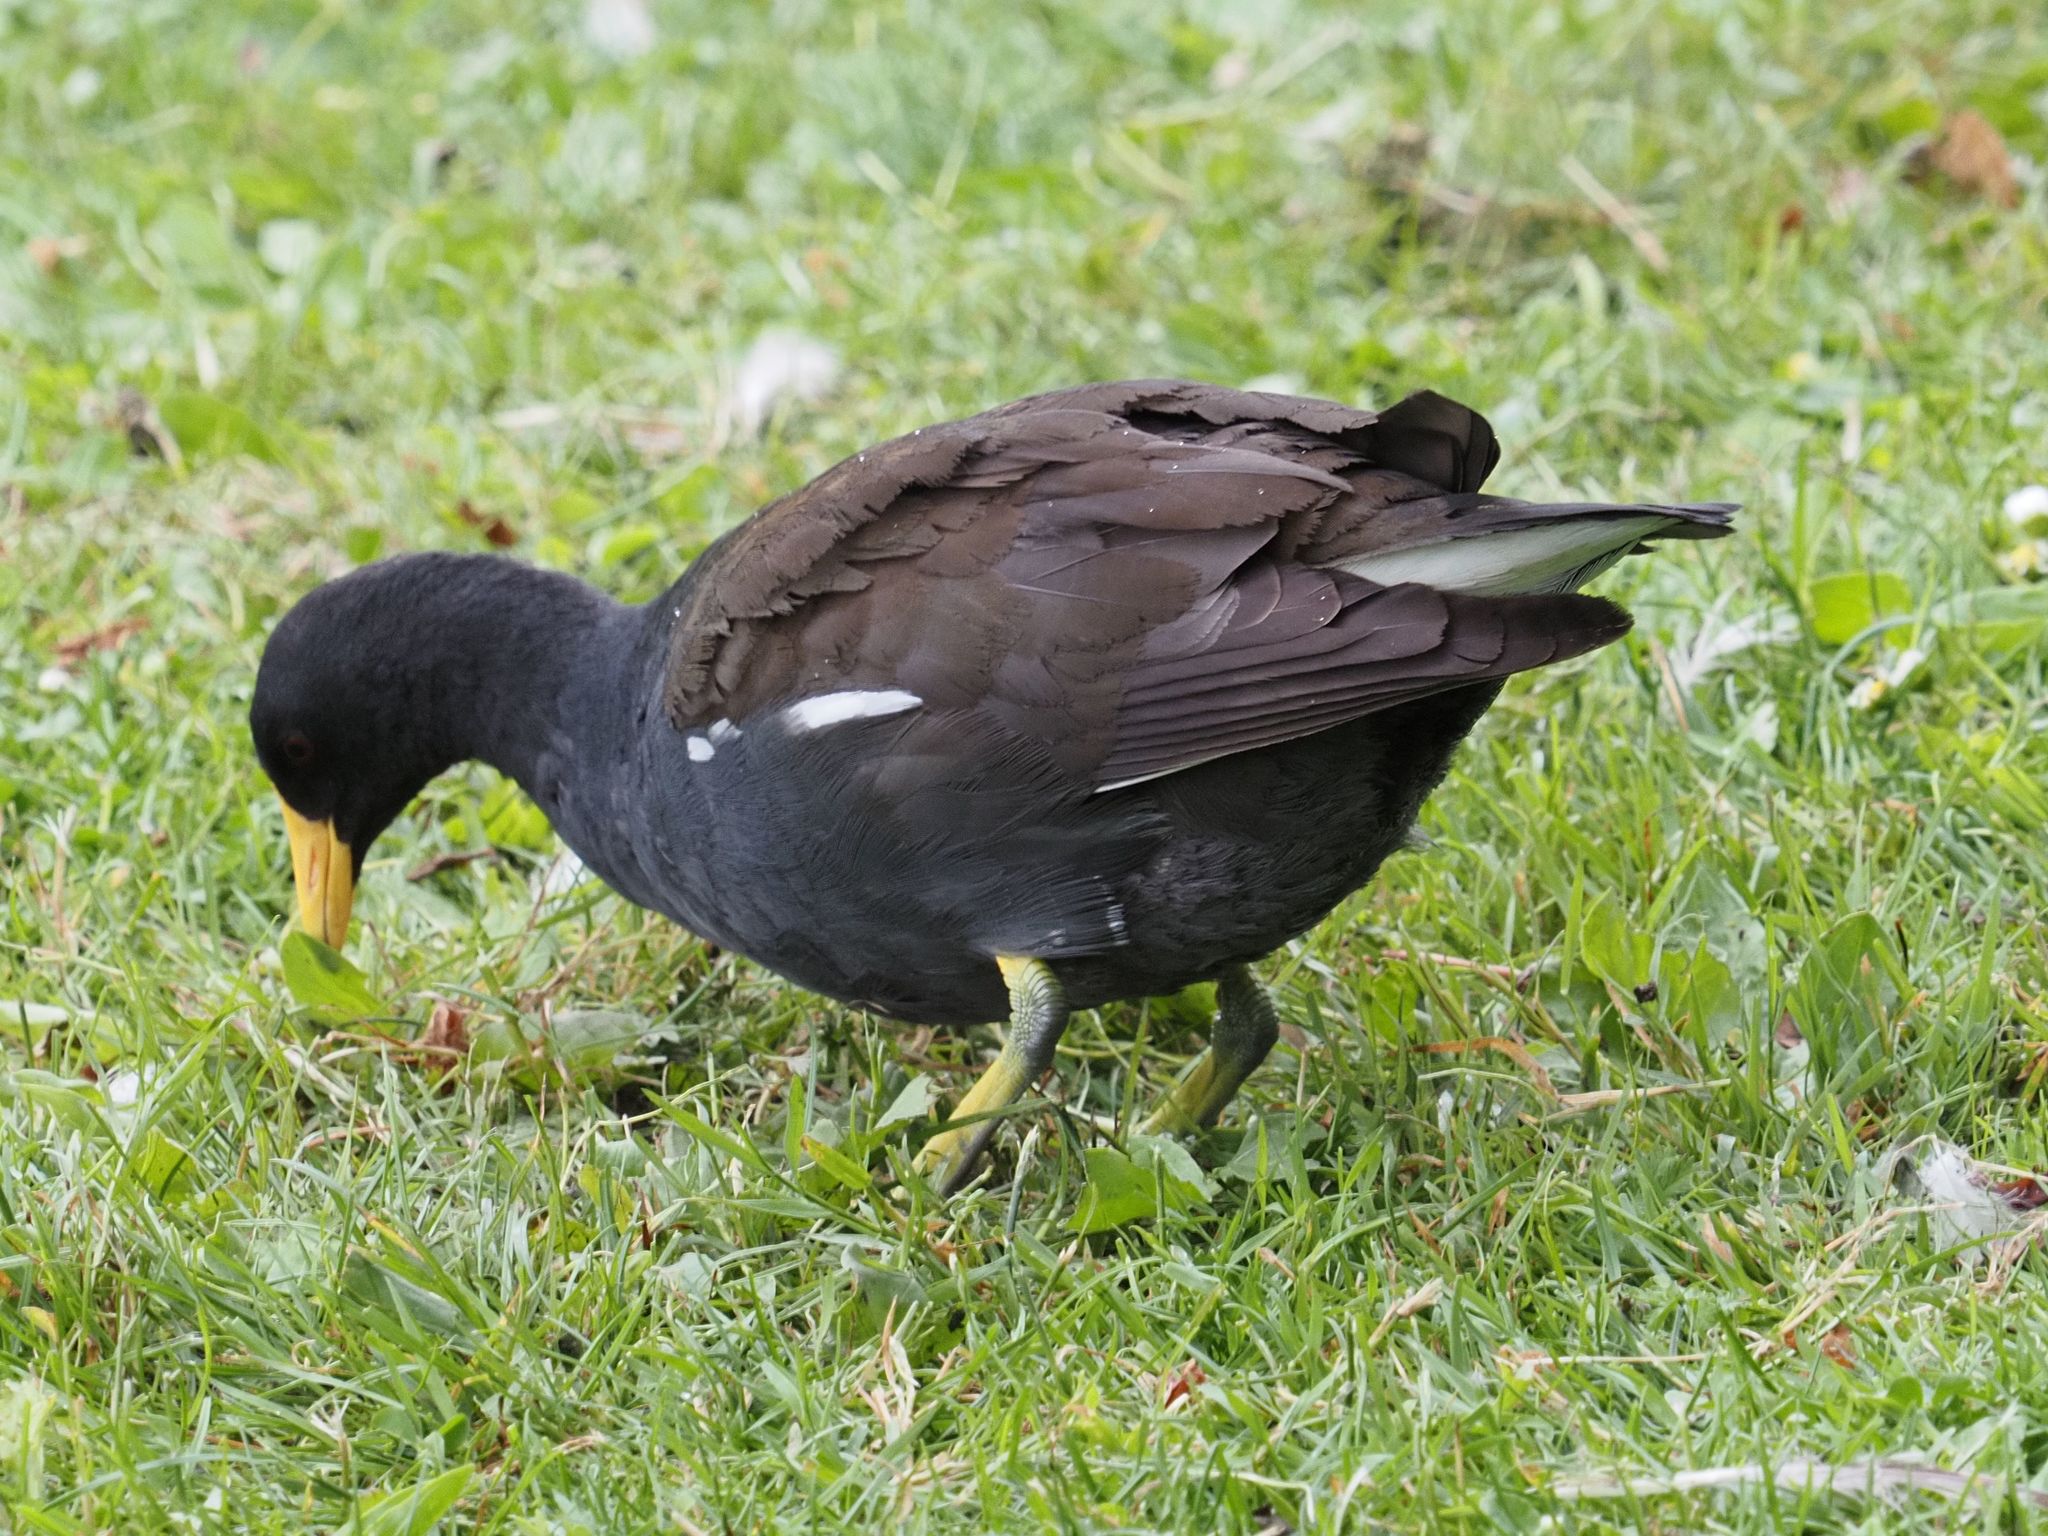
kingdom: Animalia
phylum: Chordata
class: Aves
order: Gruiformes
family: Rallidae
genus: Gallinula
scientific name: Gallinula chloropus
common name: Common moorhen
